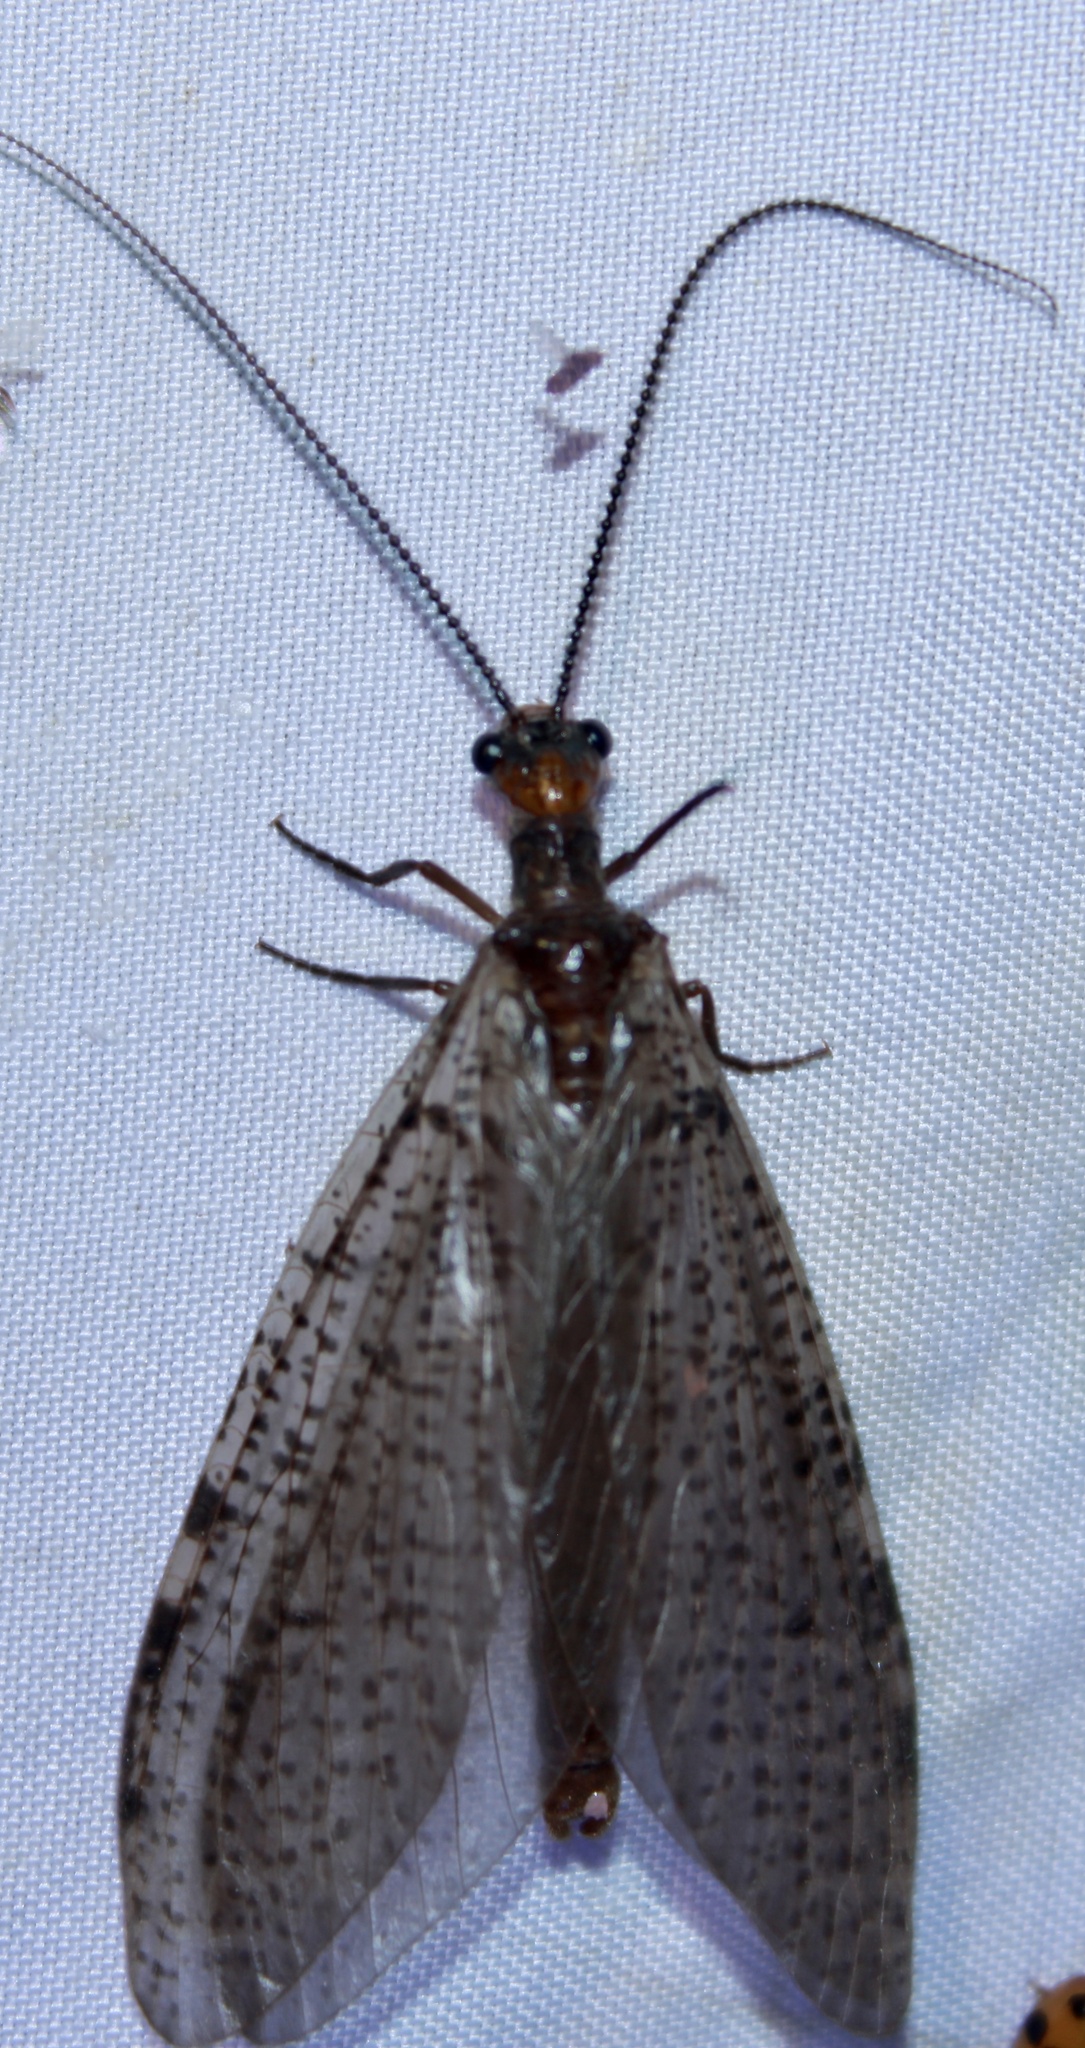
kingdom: Animalia
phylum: Arthropoda
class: Insecta
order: Megaloptera
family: Corydalidae
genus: Neohermes
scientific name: Neohermes concolor
